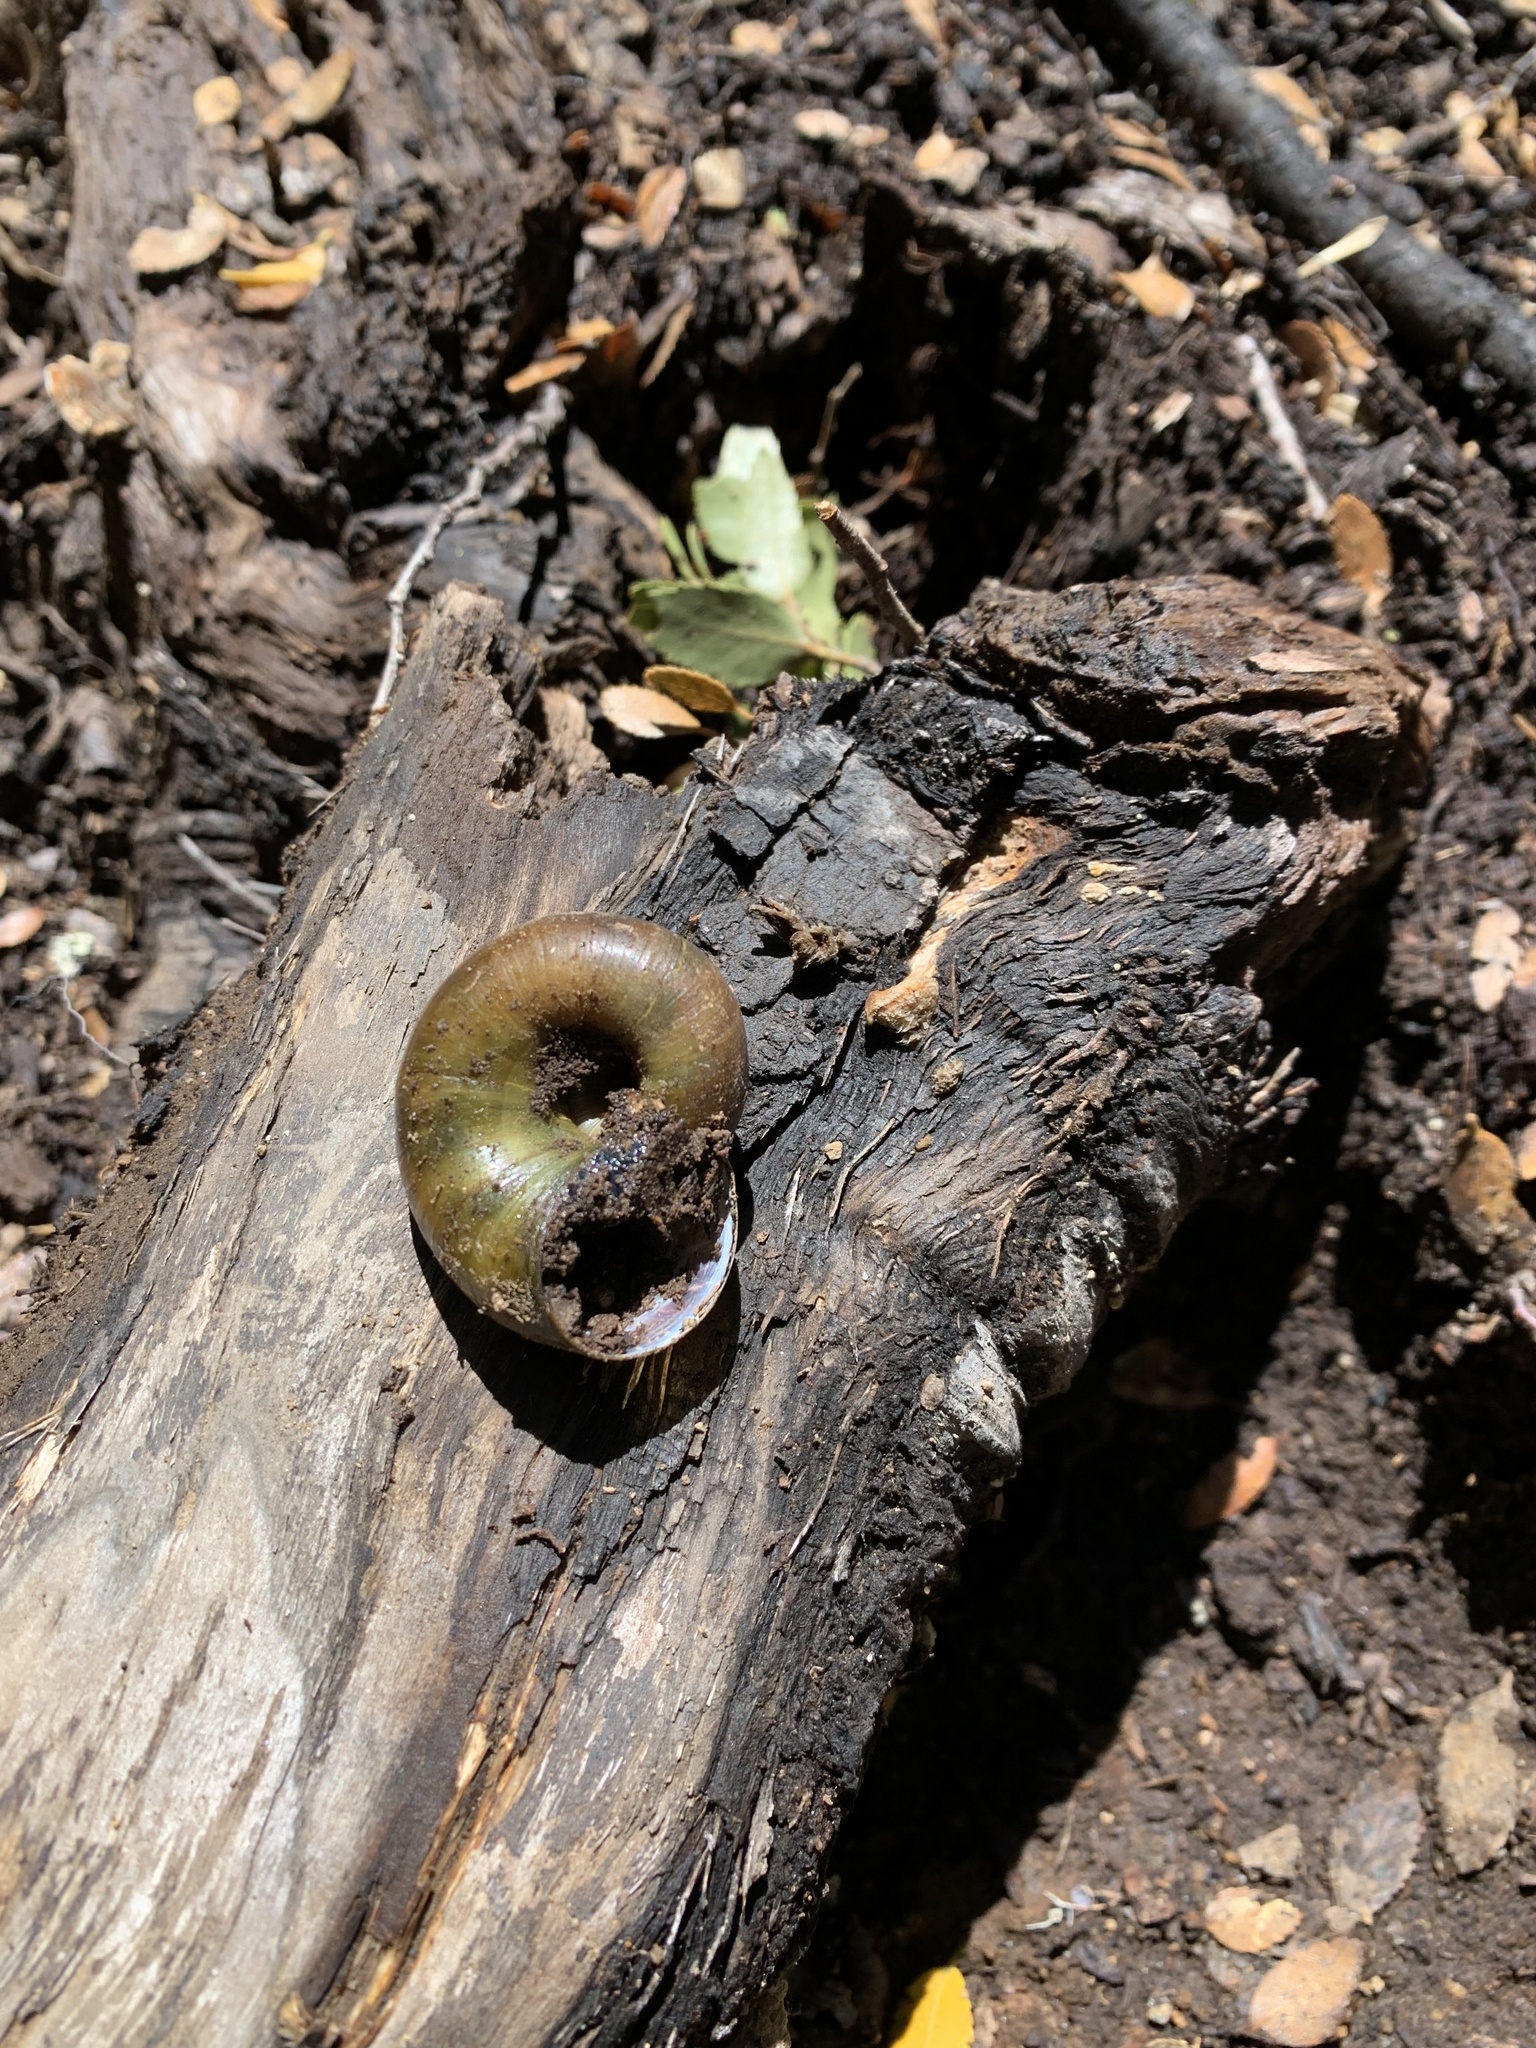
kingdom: Animalia
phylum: Mollusca
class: Gastropoda
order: Stylommatophora
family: Macrocyclidae
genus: Macrocyclis
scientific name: Macrocyclis peruvianus
